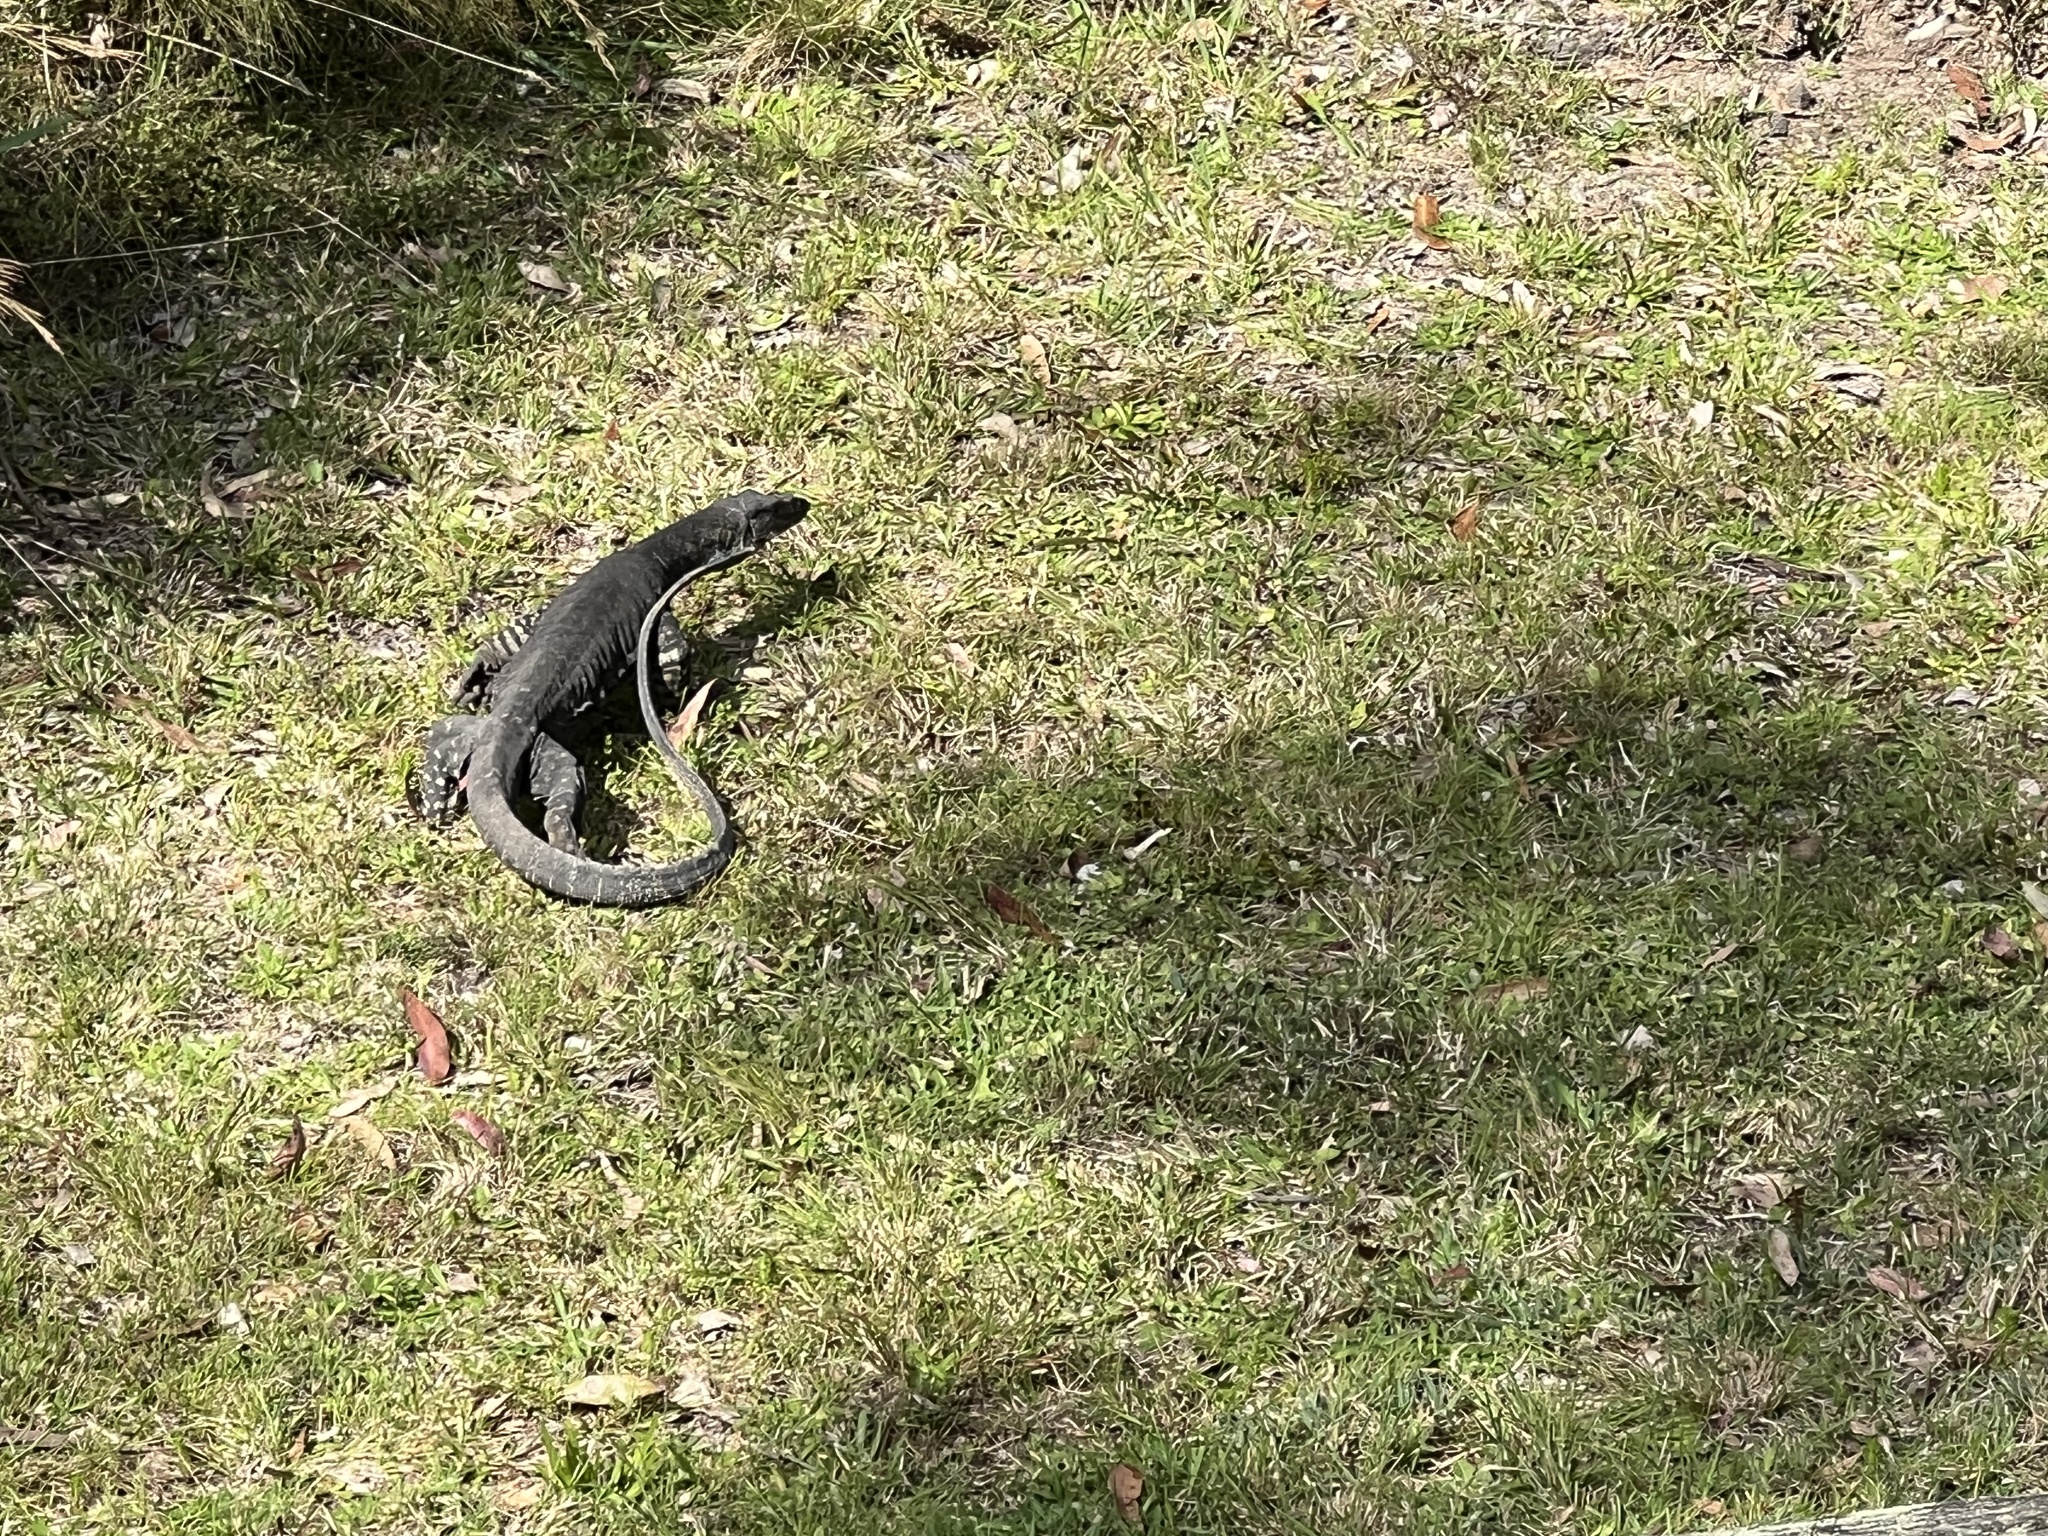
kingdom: Animalia
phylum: Chordata
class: Squamata
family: Varanidae
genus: Varanus
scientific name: Varanus varius
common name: Lace monitor
